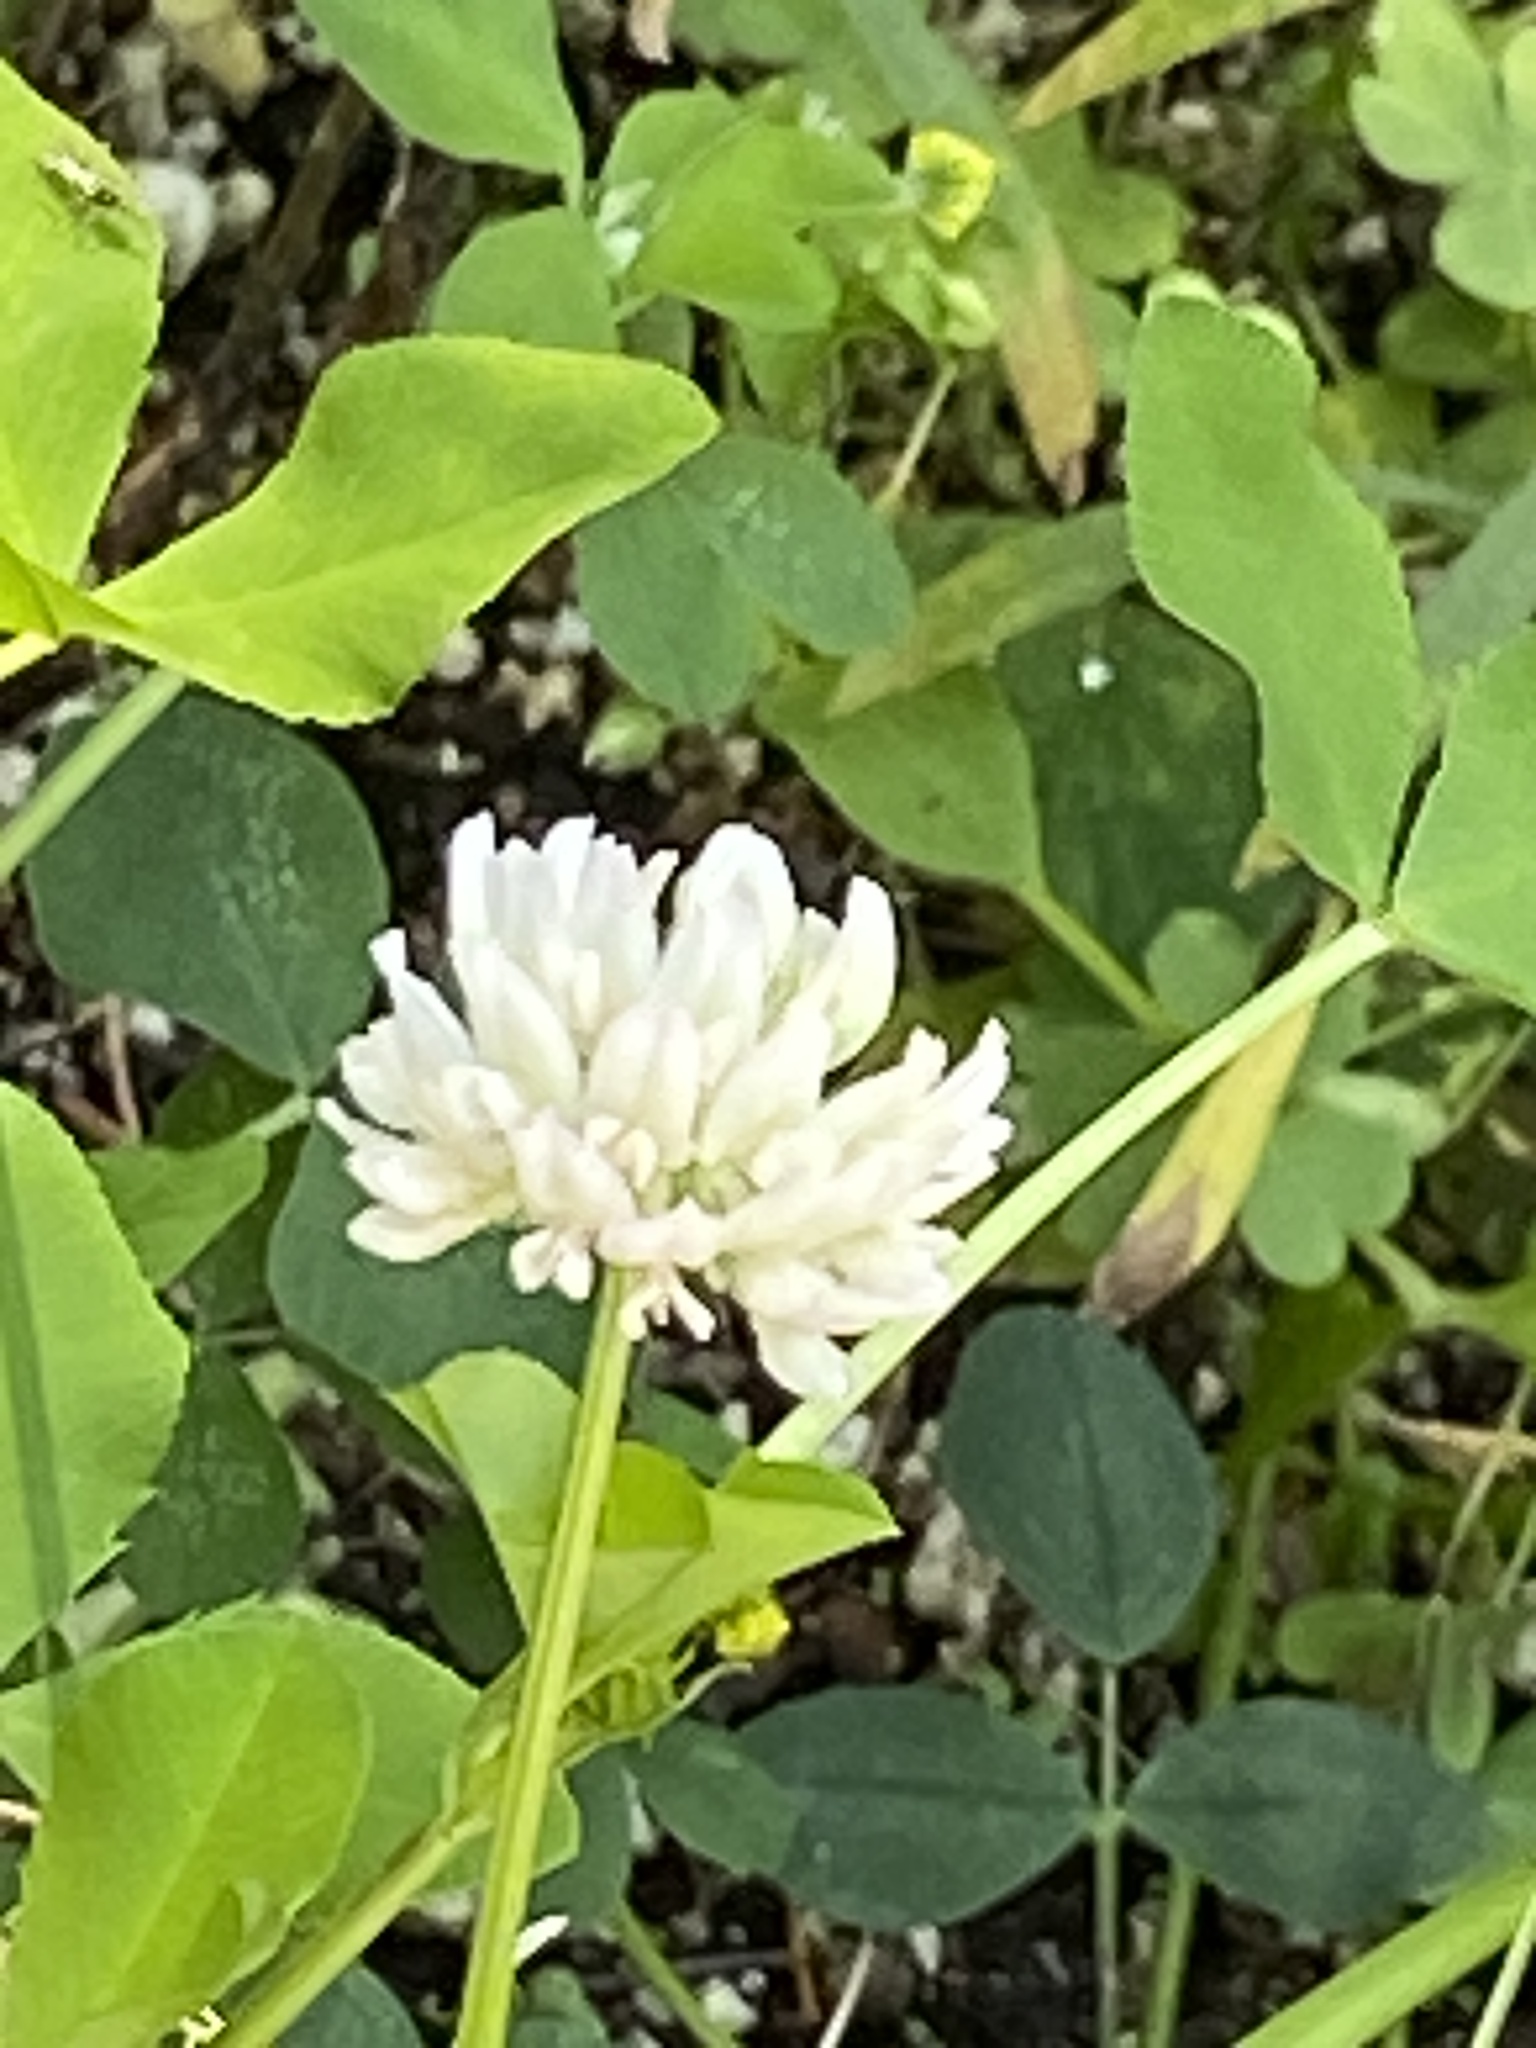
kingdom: Plantae
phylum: Tracheophyta
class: Magnoliopsida
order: Fabales
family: Fabaceae
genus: Trifolium
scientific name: Trifolium hybridum
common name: Alsike clover
